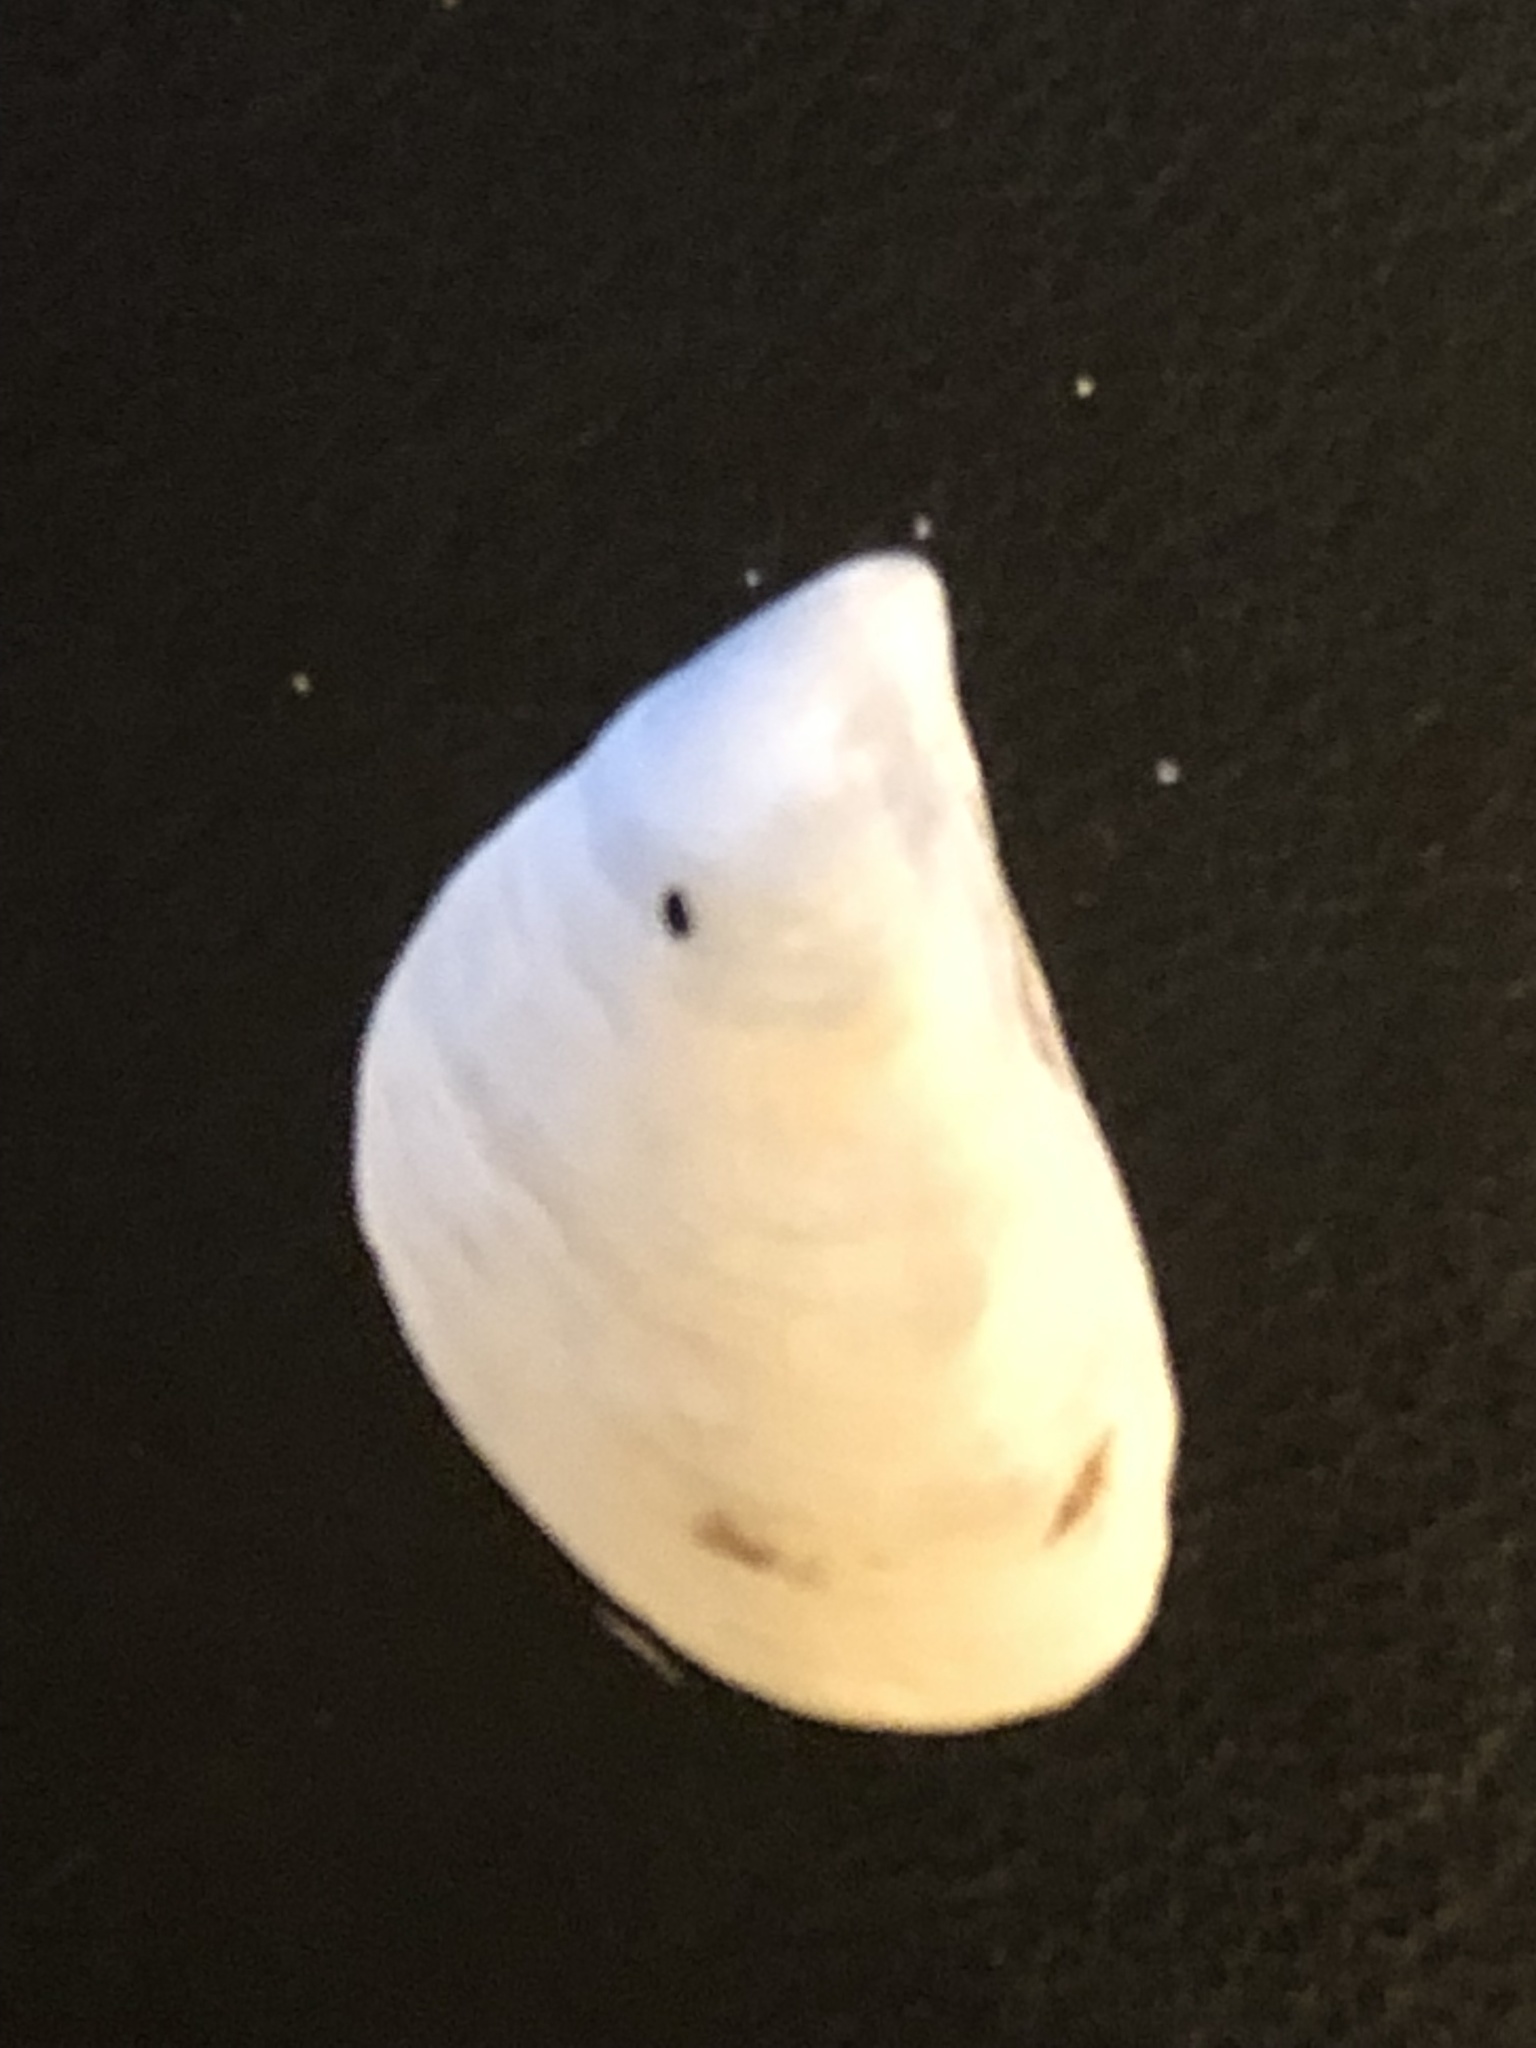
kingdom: Animalia
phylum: Mollusca
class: Bivalvia
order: Myida
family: Dreissenidae
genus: Dreissena
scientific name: Dreissena bugensis
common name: Quagga mussel
